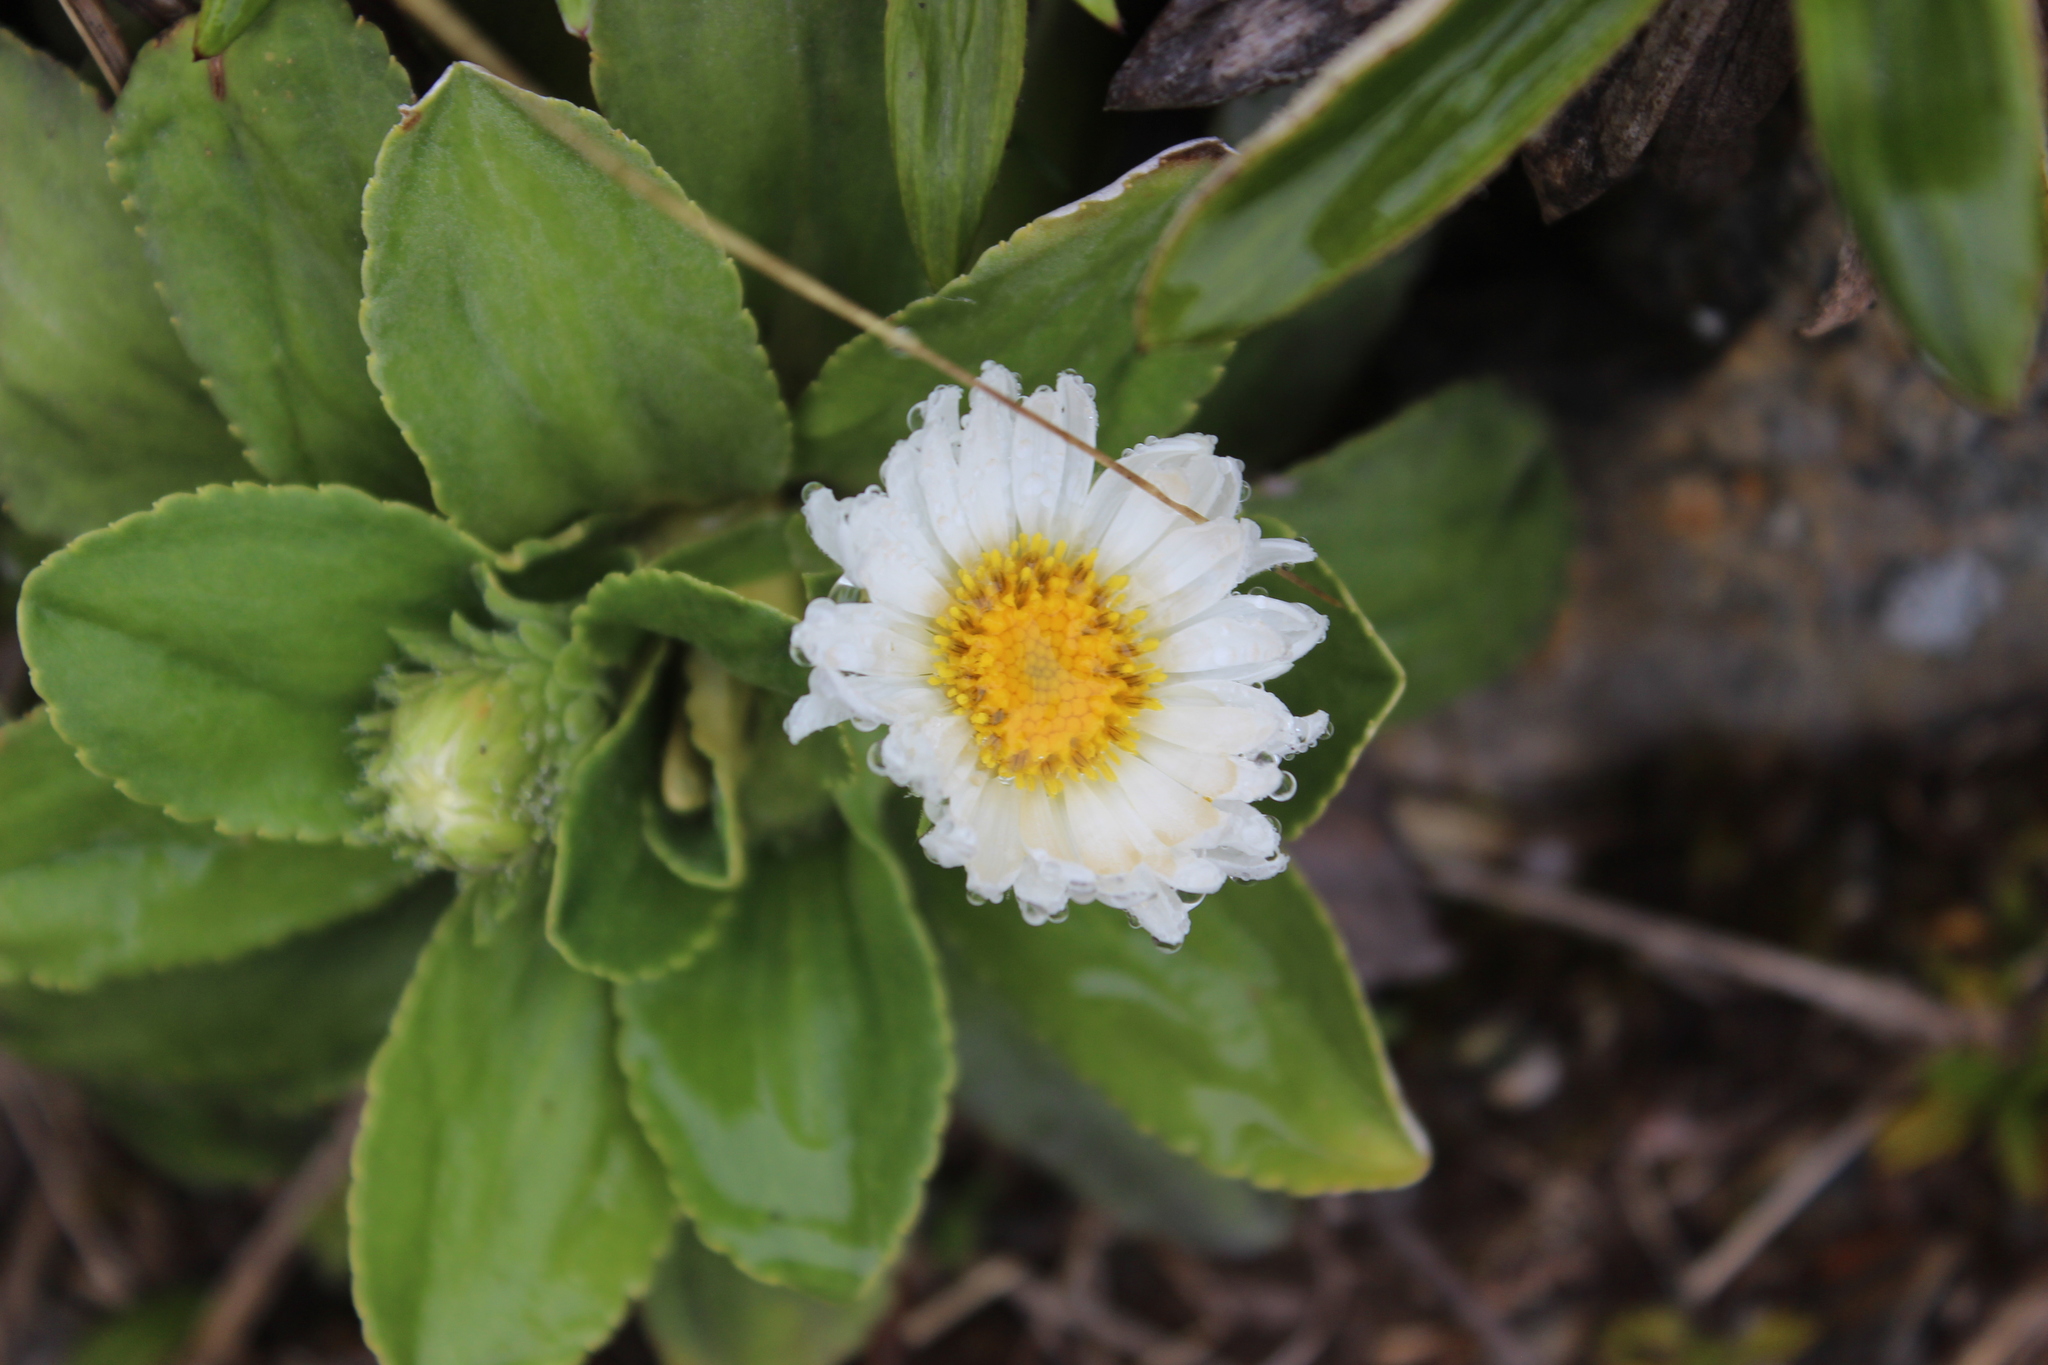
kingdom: Plantae
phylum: Tracheophyta
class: Magnoliopsida
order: Asterales
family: Asteraceae
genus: Celmisia
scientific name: Celmisia hieraciifolia
